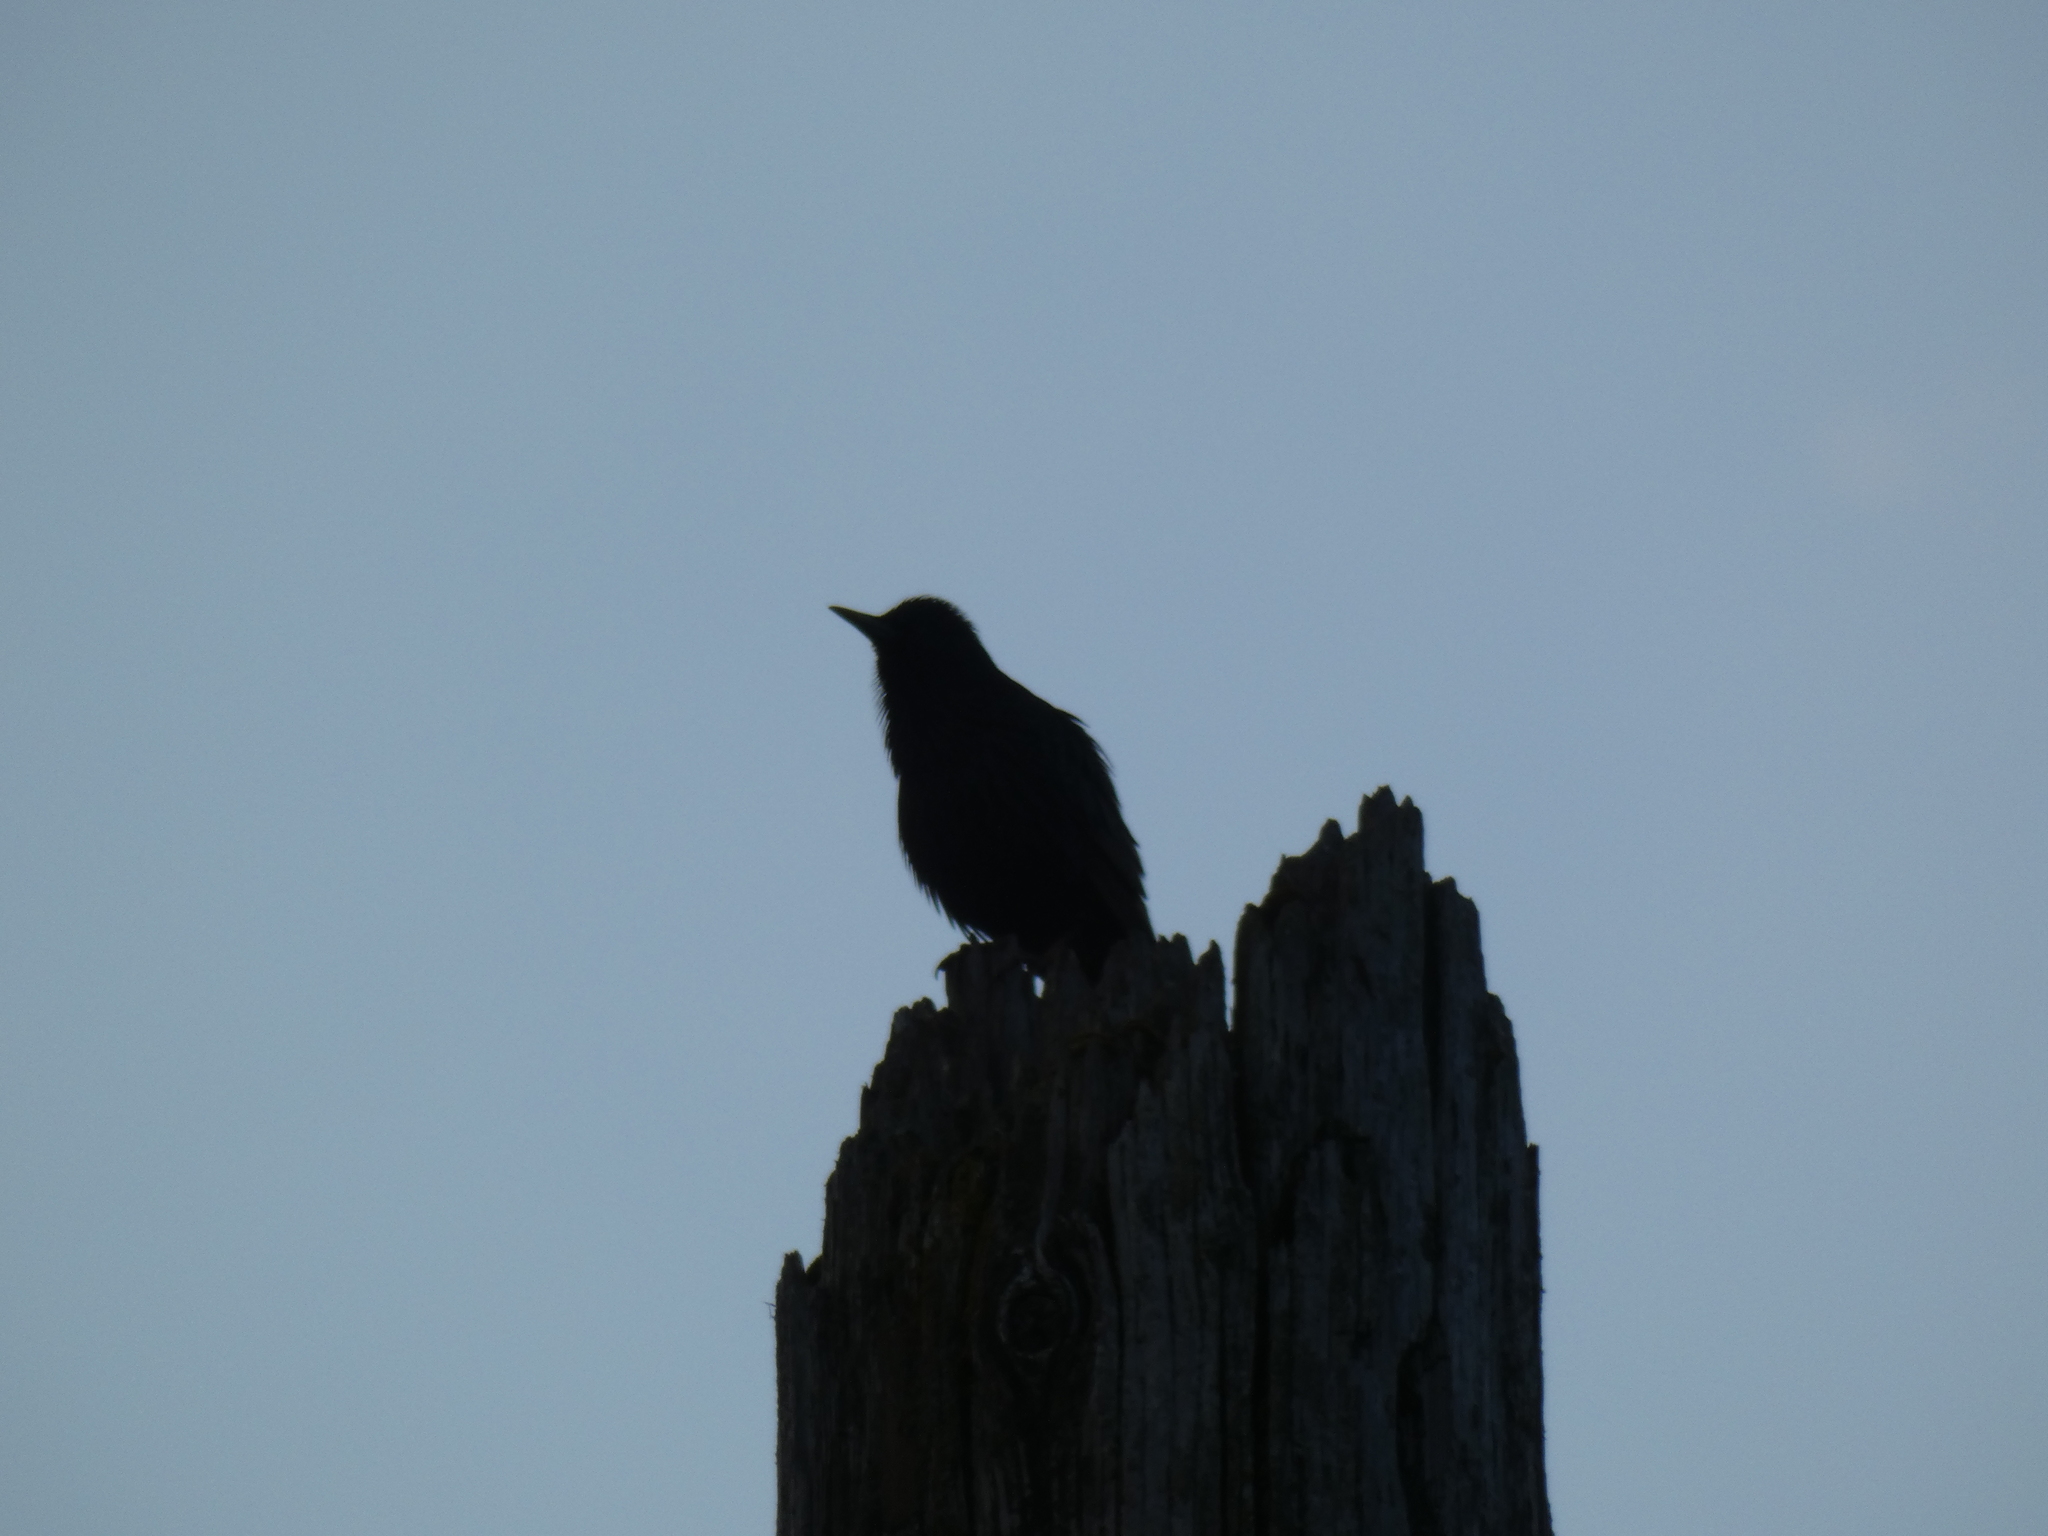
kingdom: Animalia
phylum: Chordata
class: Aves
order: Passeriformes
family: Sturnidae
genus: Sturnus
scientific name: Sturnus vulgaris
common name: Common starling
